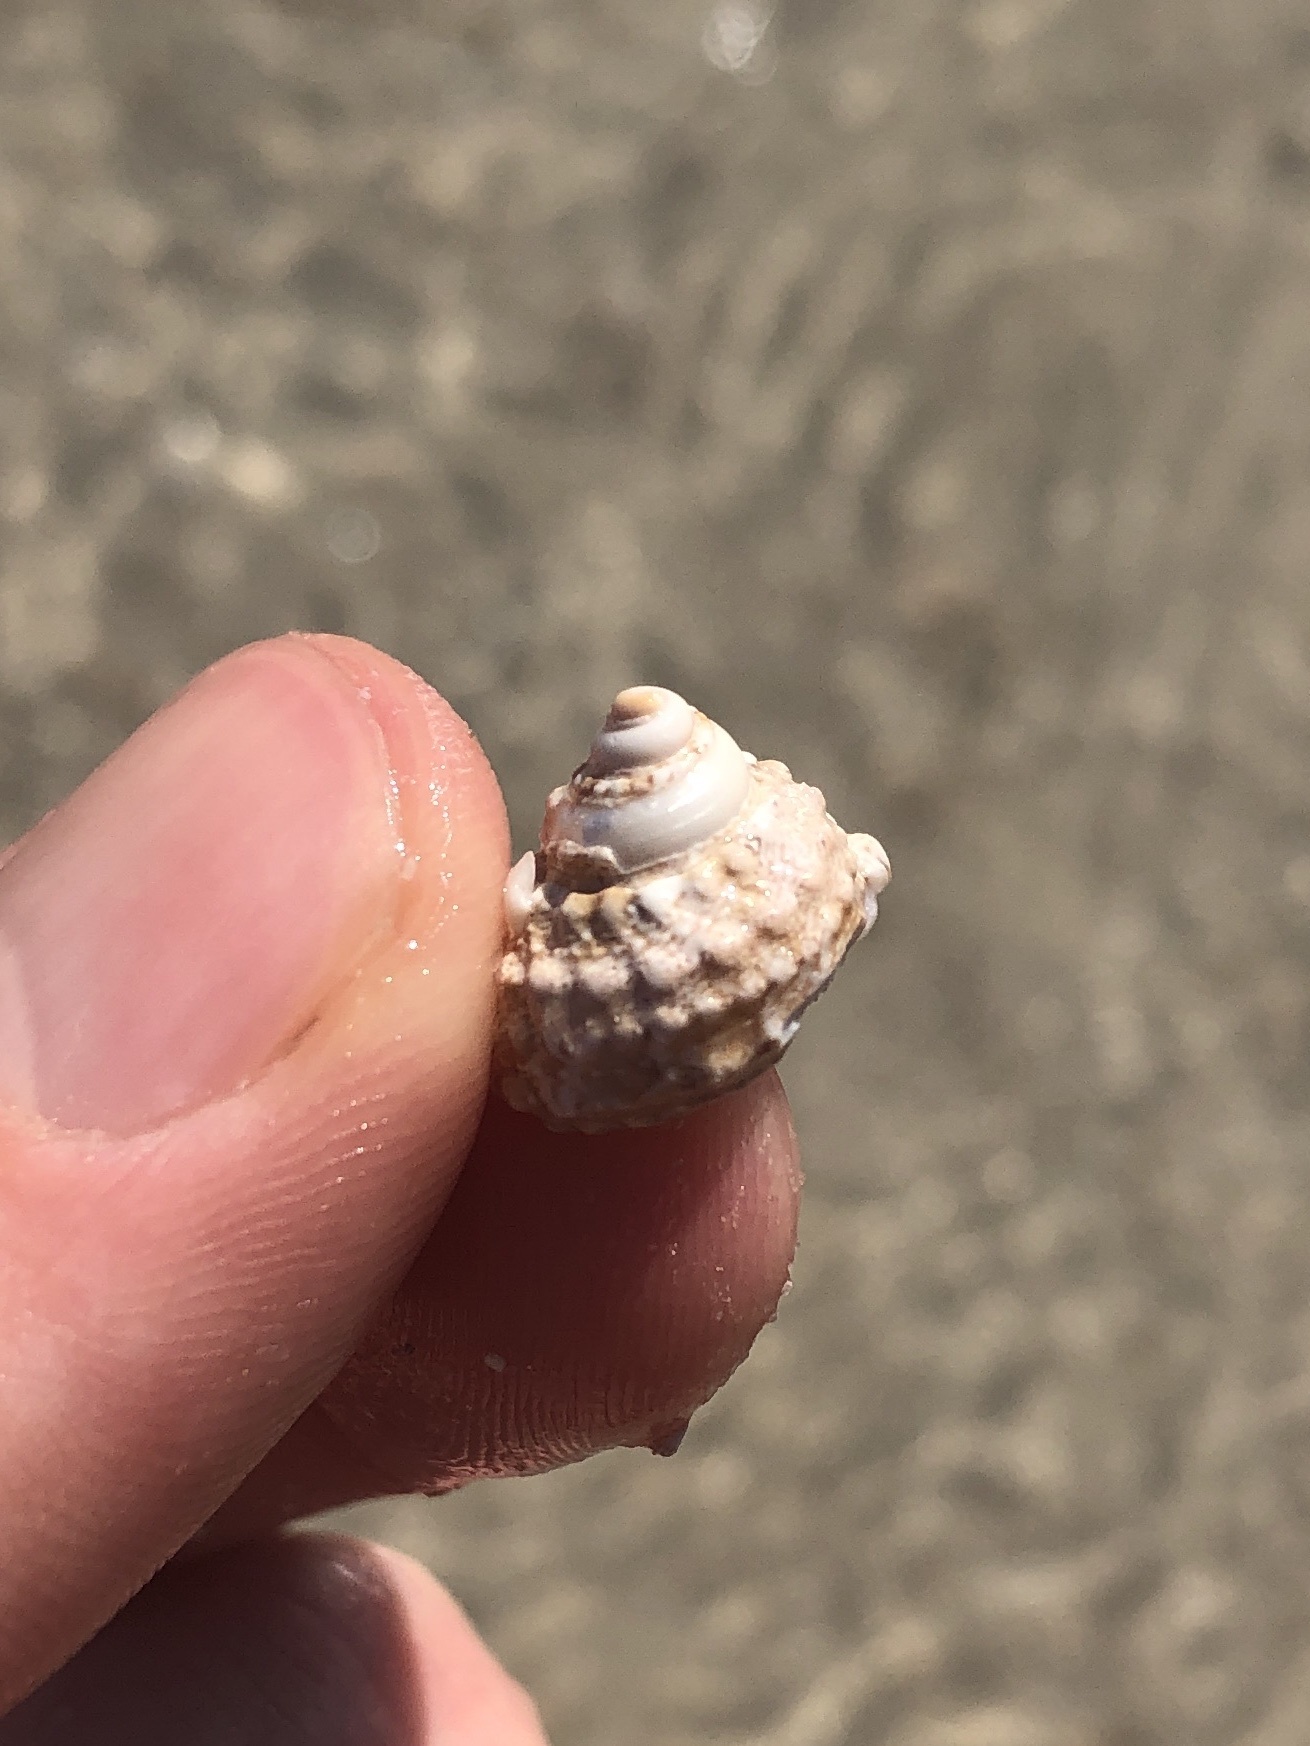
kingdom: Animalia
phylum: Mollusca
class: Gastropoda
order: Trochida
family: Turbinidae
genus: Turbo
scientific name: Turbo castanea
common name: Chestnut turban
